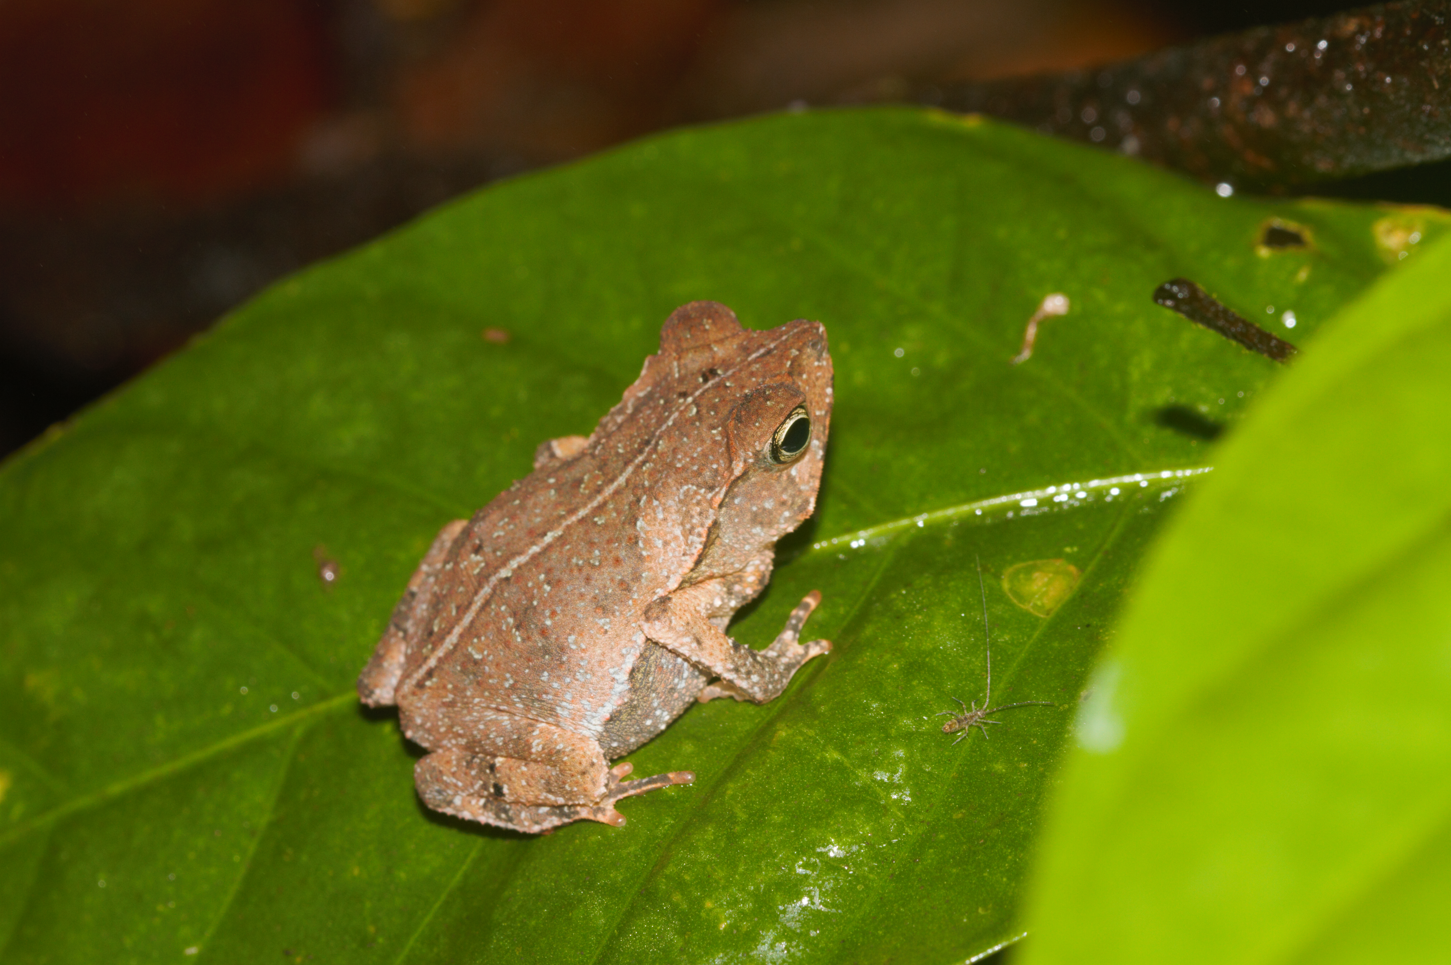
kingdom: Animalia
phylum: Chordata
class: Amphibia
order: Anura
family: Bufonidae
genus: Rhinella
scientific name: Rhinella castaneotica
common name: Para toad
